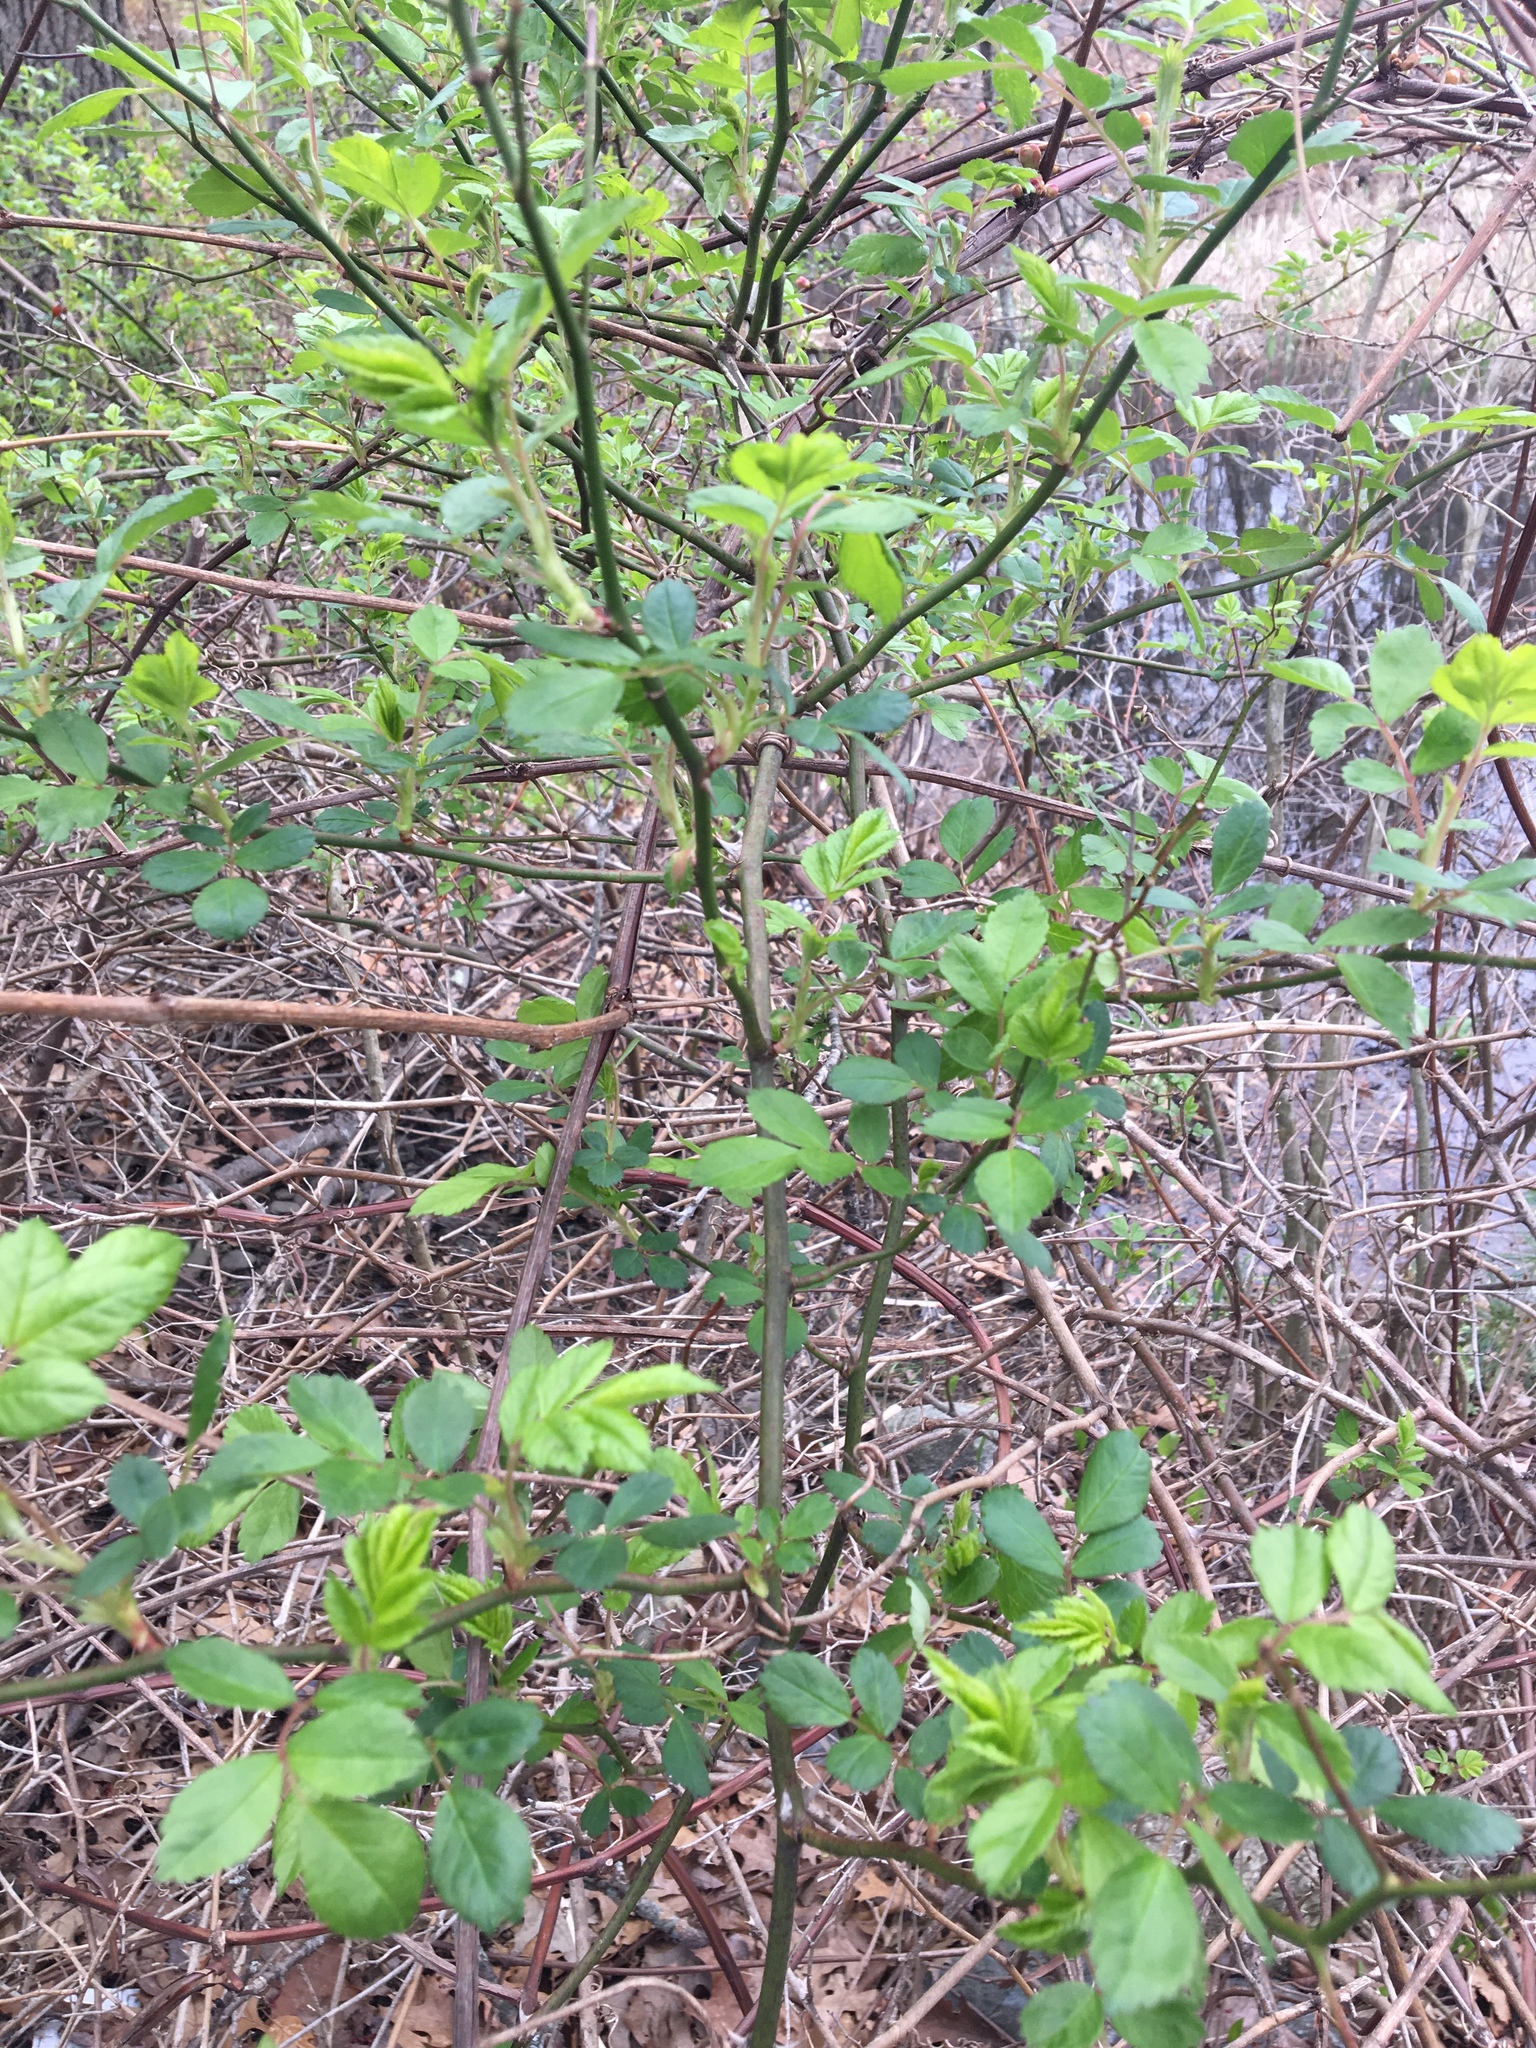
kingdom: Plantae
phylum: Tracheophyta
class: Magnoliopsida
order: Rosales
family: Rosaceae
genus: Rosa
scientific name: Rosa multiflora
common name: Multiflora rose
